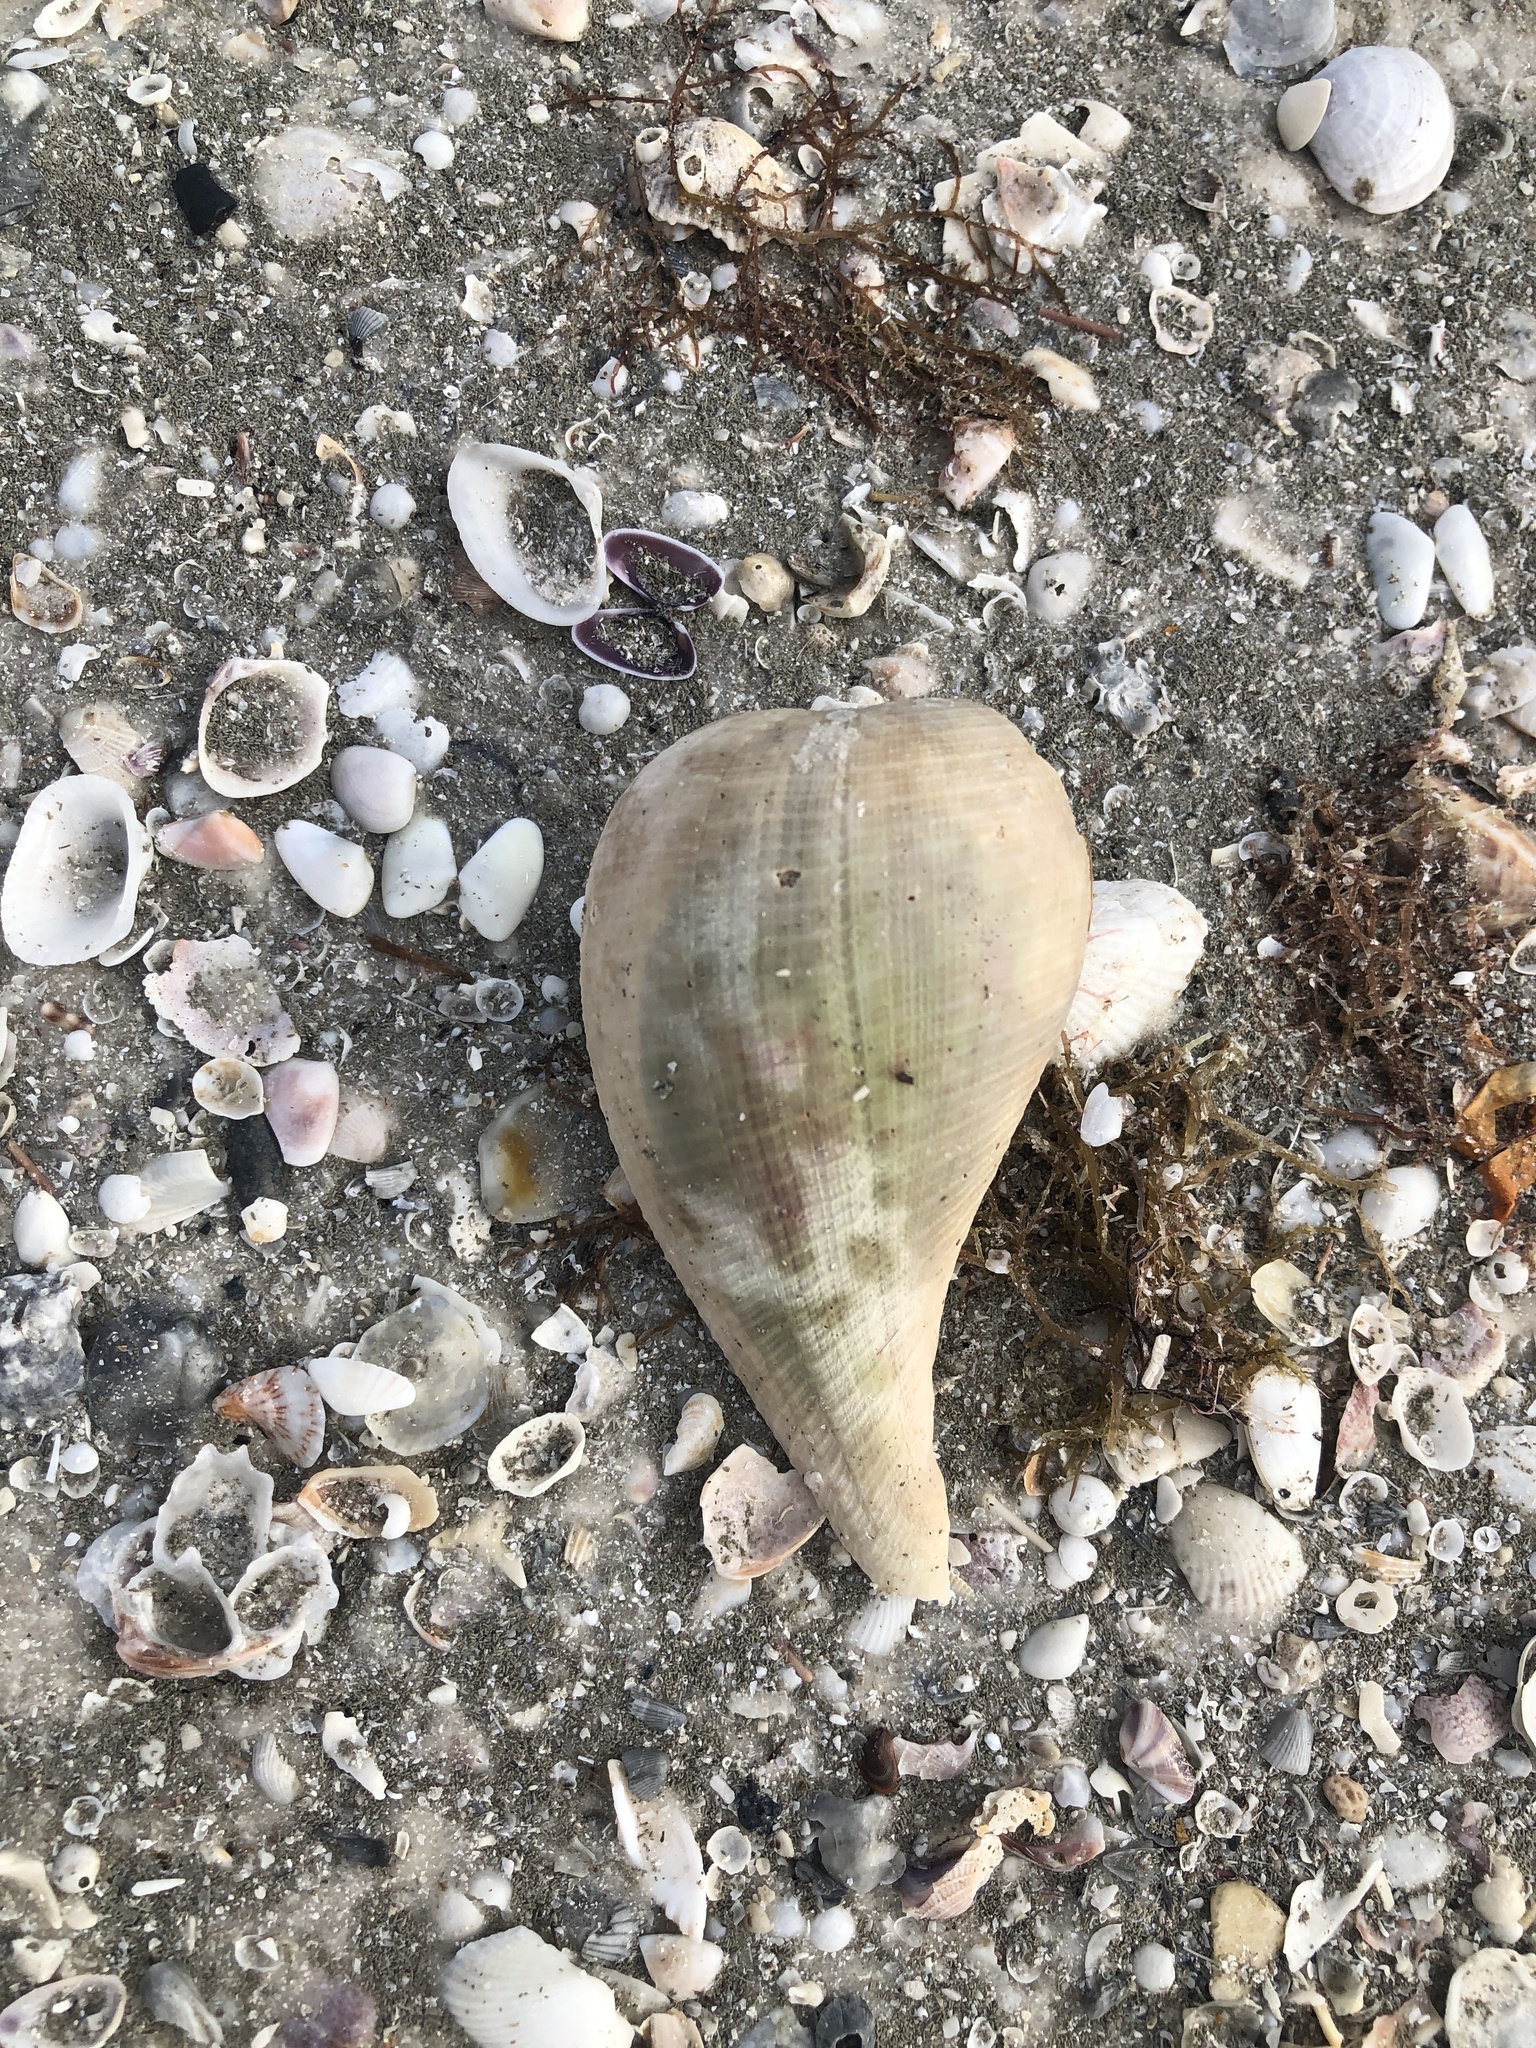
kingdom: Animalia
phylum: Mollusca
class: Gastropoda
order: Littorinimorpha
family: Ficidae
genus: Ficus
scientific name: Ficus papyratia
